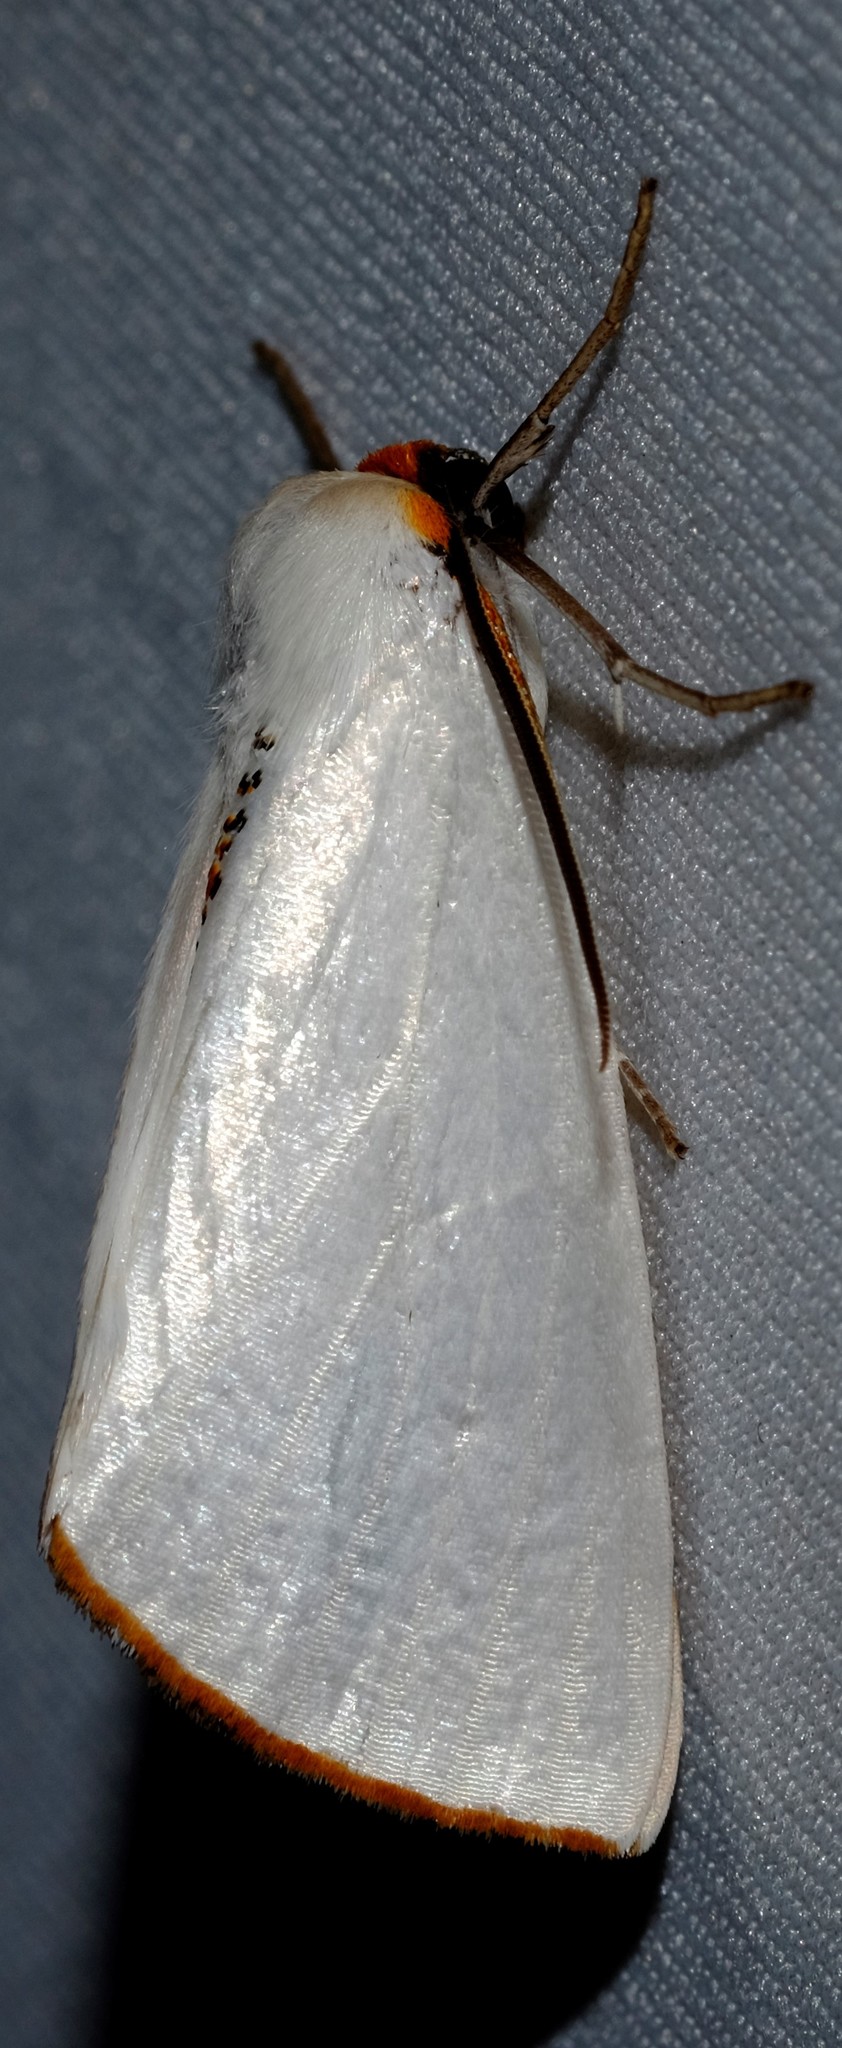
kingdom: Animalia
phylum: Arthropoda
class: Insecta
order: Lepidoptera
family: Geometridae
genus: Thalaina
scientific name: Thalaina selenaea
